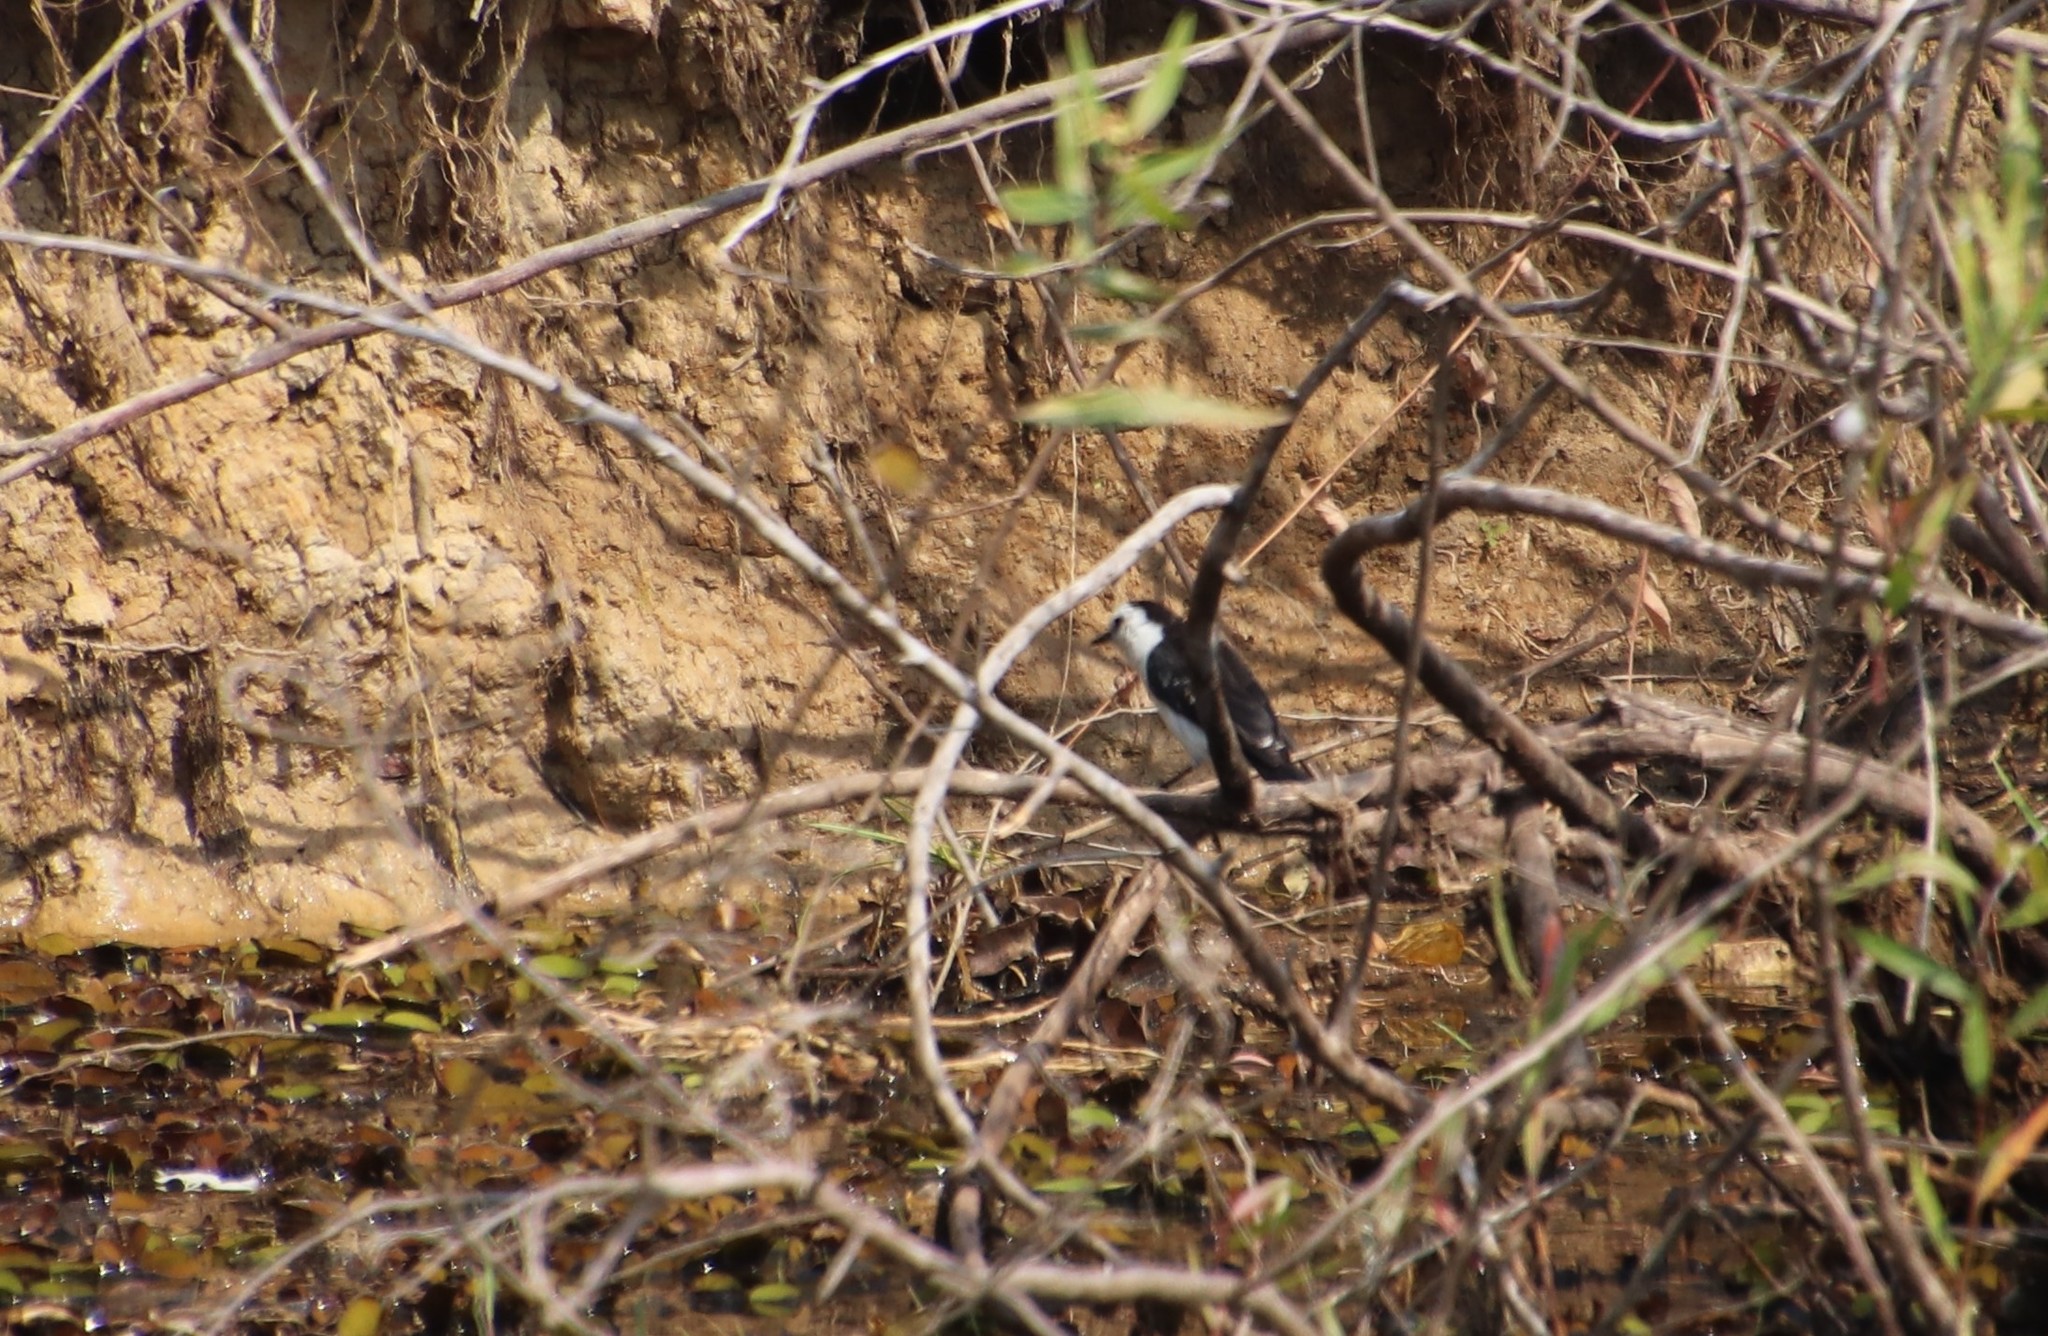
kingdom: Animalia
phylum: Chordata
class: Aves
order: Passeriformes
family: Tyrannidae
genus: Fluvicola
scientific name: Fluvicola pica
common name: Pied water-tyrant
